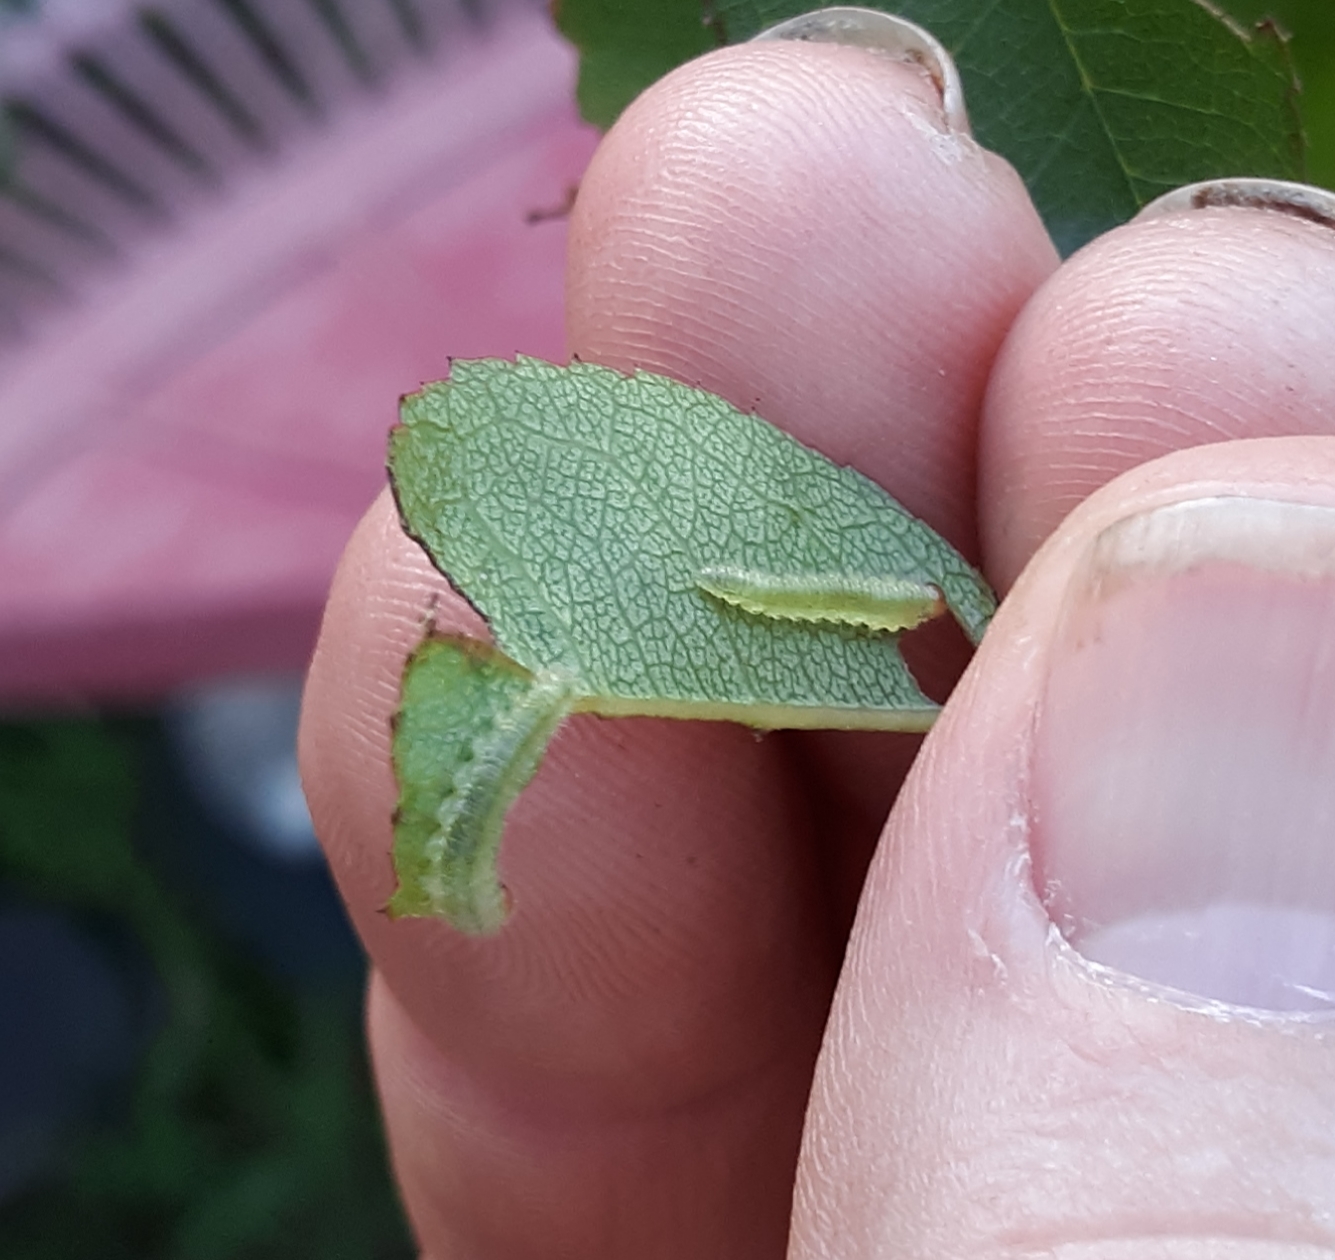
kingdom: Animalia
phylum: Arthropoda
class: Insecta
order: Hymenoptera
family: Tenthredinidae
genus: Cladius
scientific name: Cladius pectinicornis
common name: Sawfly
